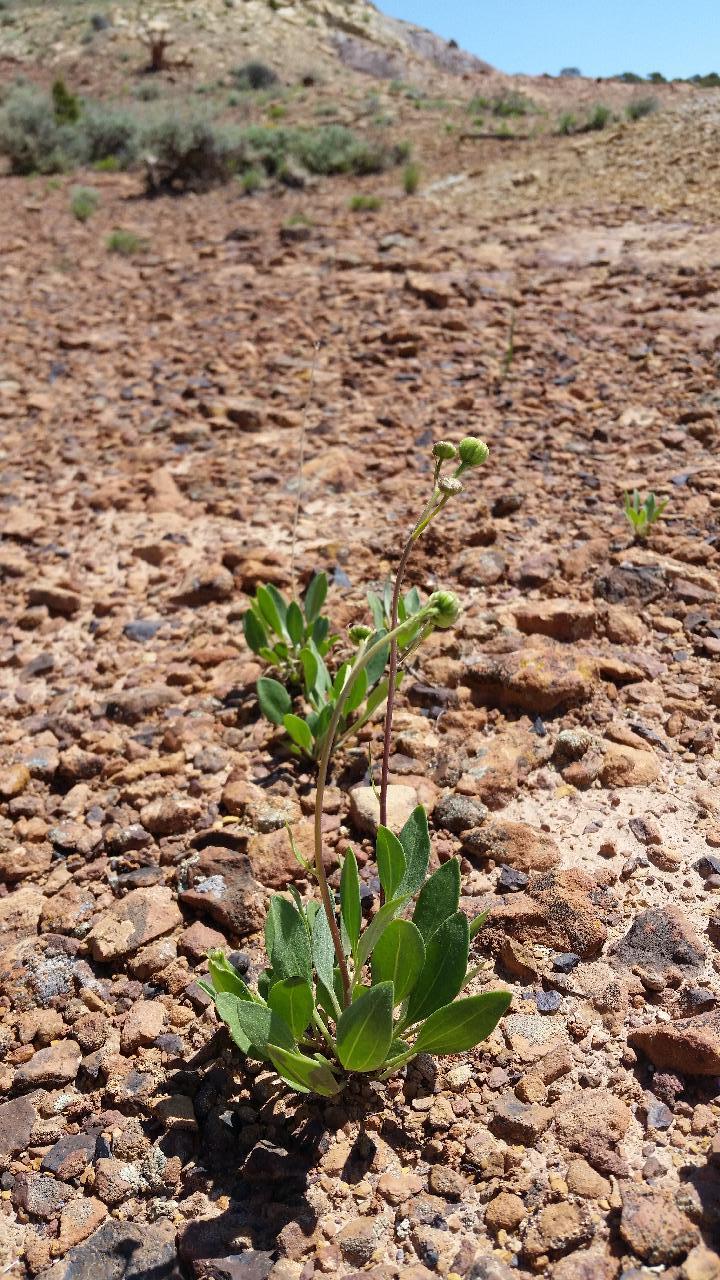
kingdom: Plantae
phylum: Tracheophyta
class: Magnoliopsida
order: Asterales
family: Asteraceae
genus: Platyschkuhria
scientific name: Platyschkuhria integrifolia
